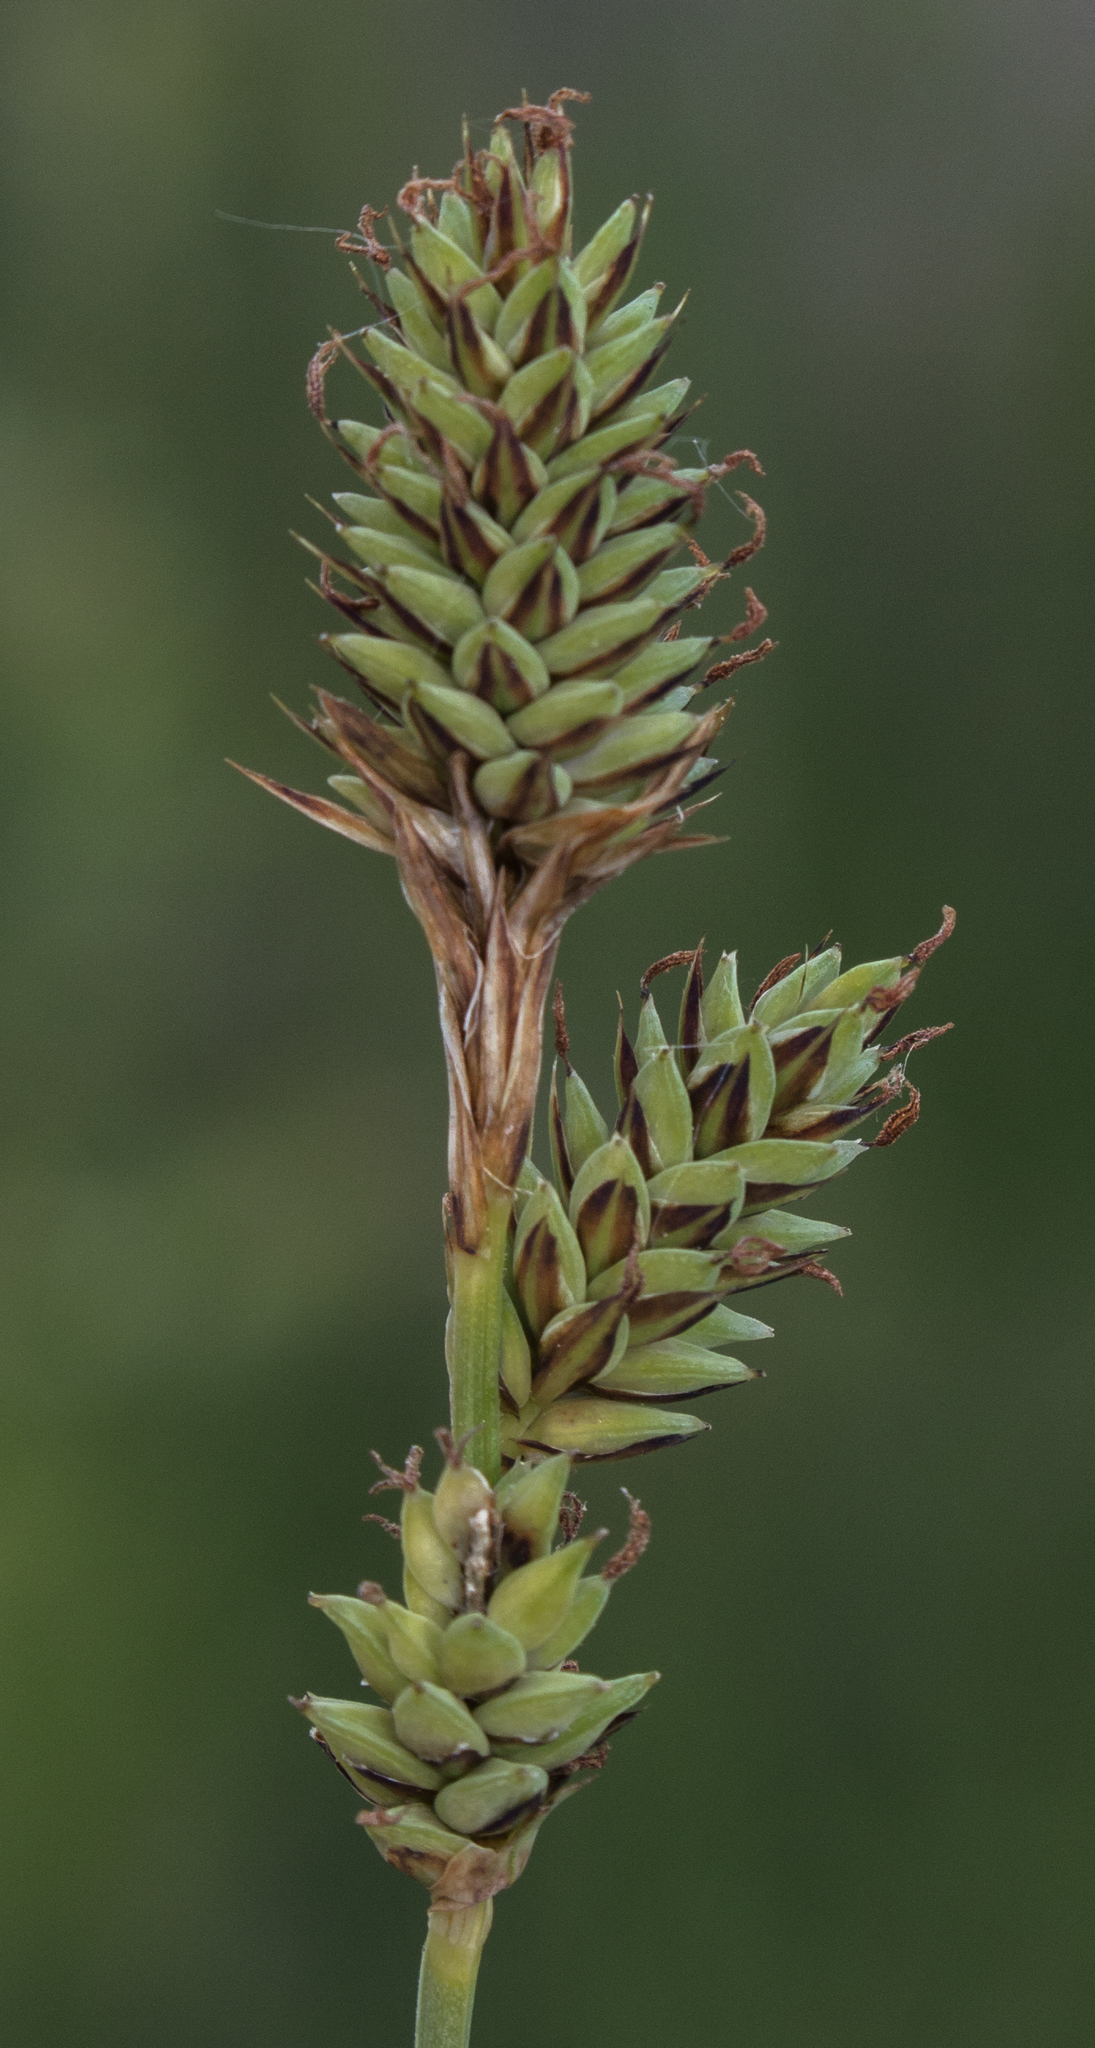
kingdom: Plantae
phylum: Tracheophyta
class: Liliopsida
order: Poales
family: Cyperaceae
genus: Carex
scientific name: Carex buxbaumii
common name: Club sedge
